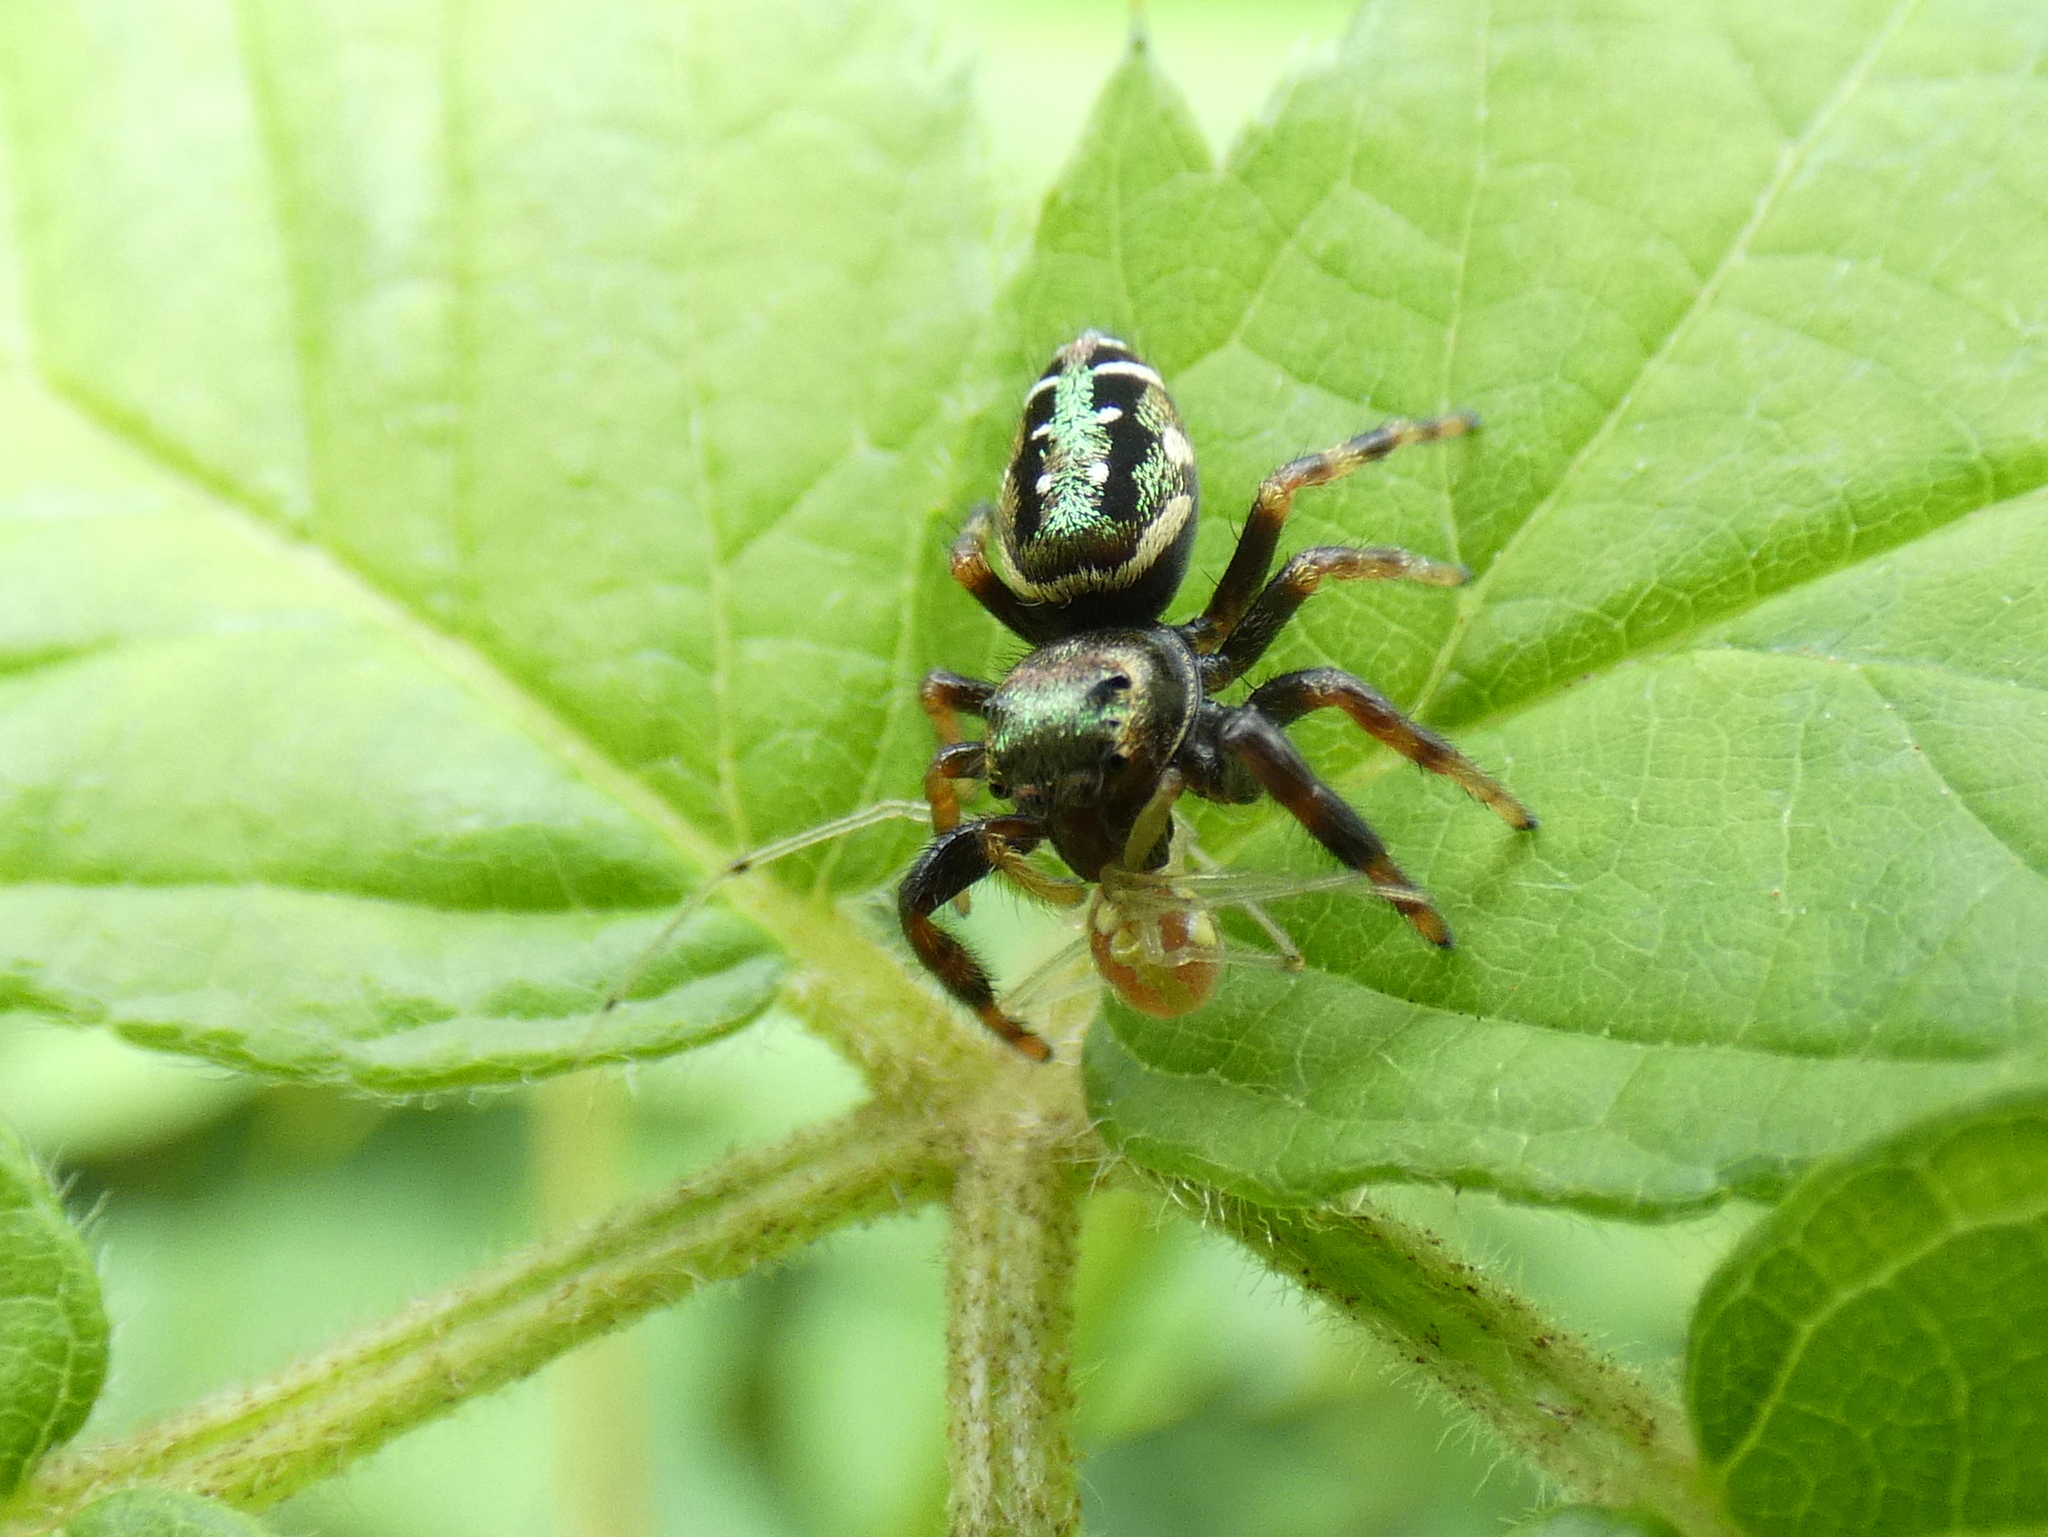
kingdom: Animalia
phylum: Arthropoda
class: Arachnida
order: Araneae
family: Salticidae
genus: Paraphidippus
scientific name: Paraphidippus aurantius
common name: Jumping spiders
